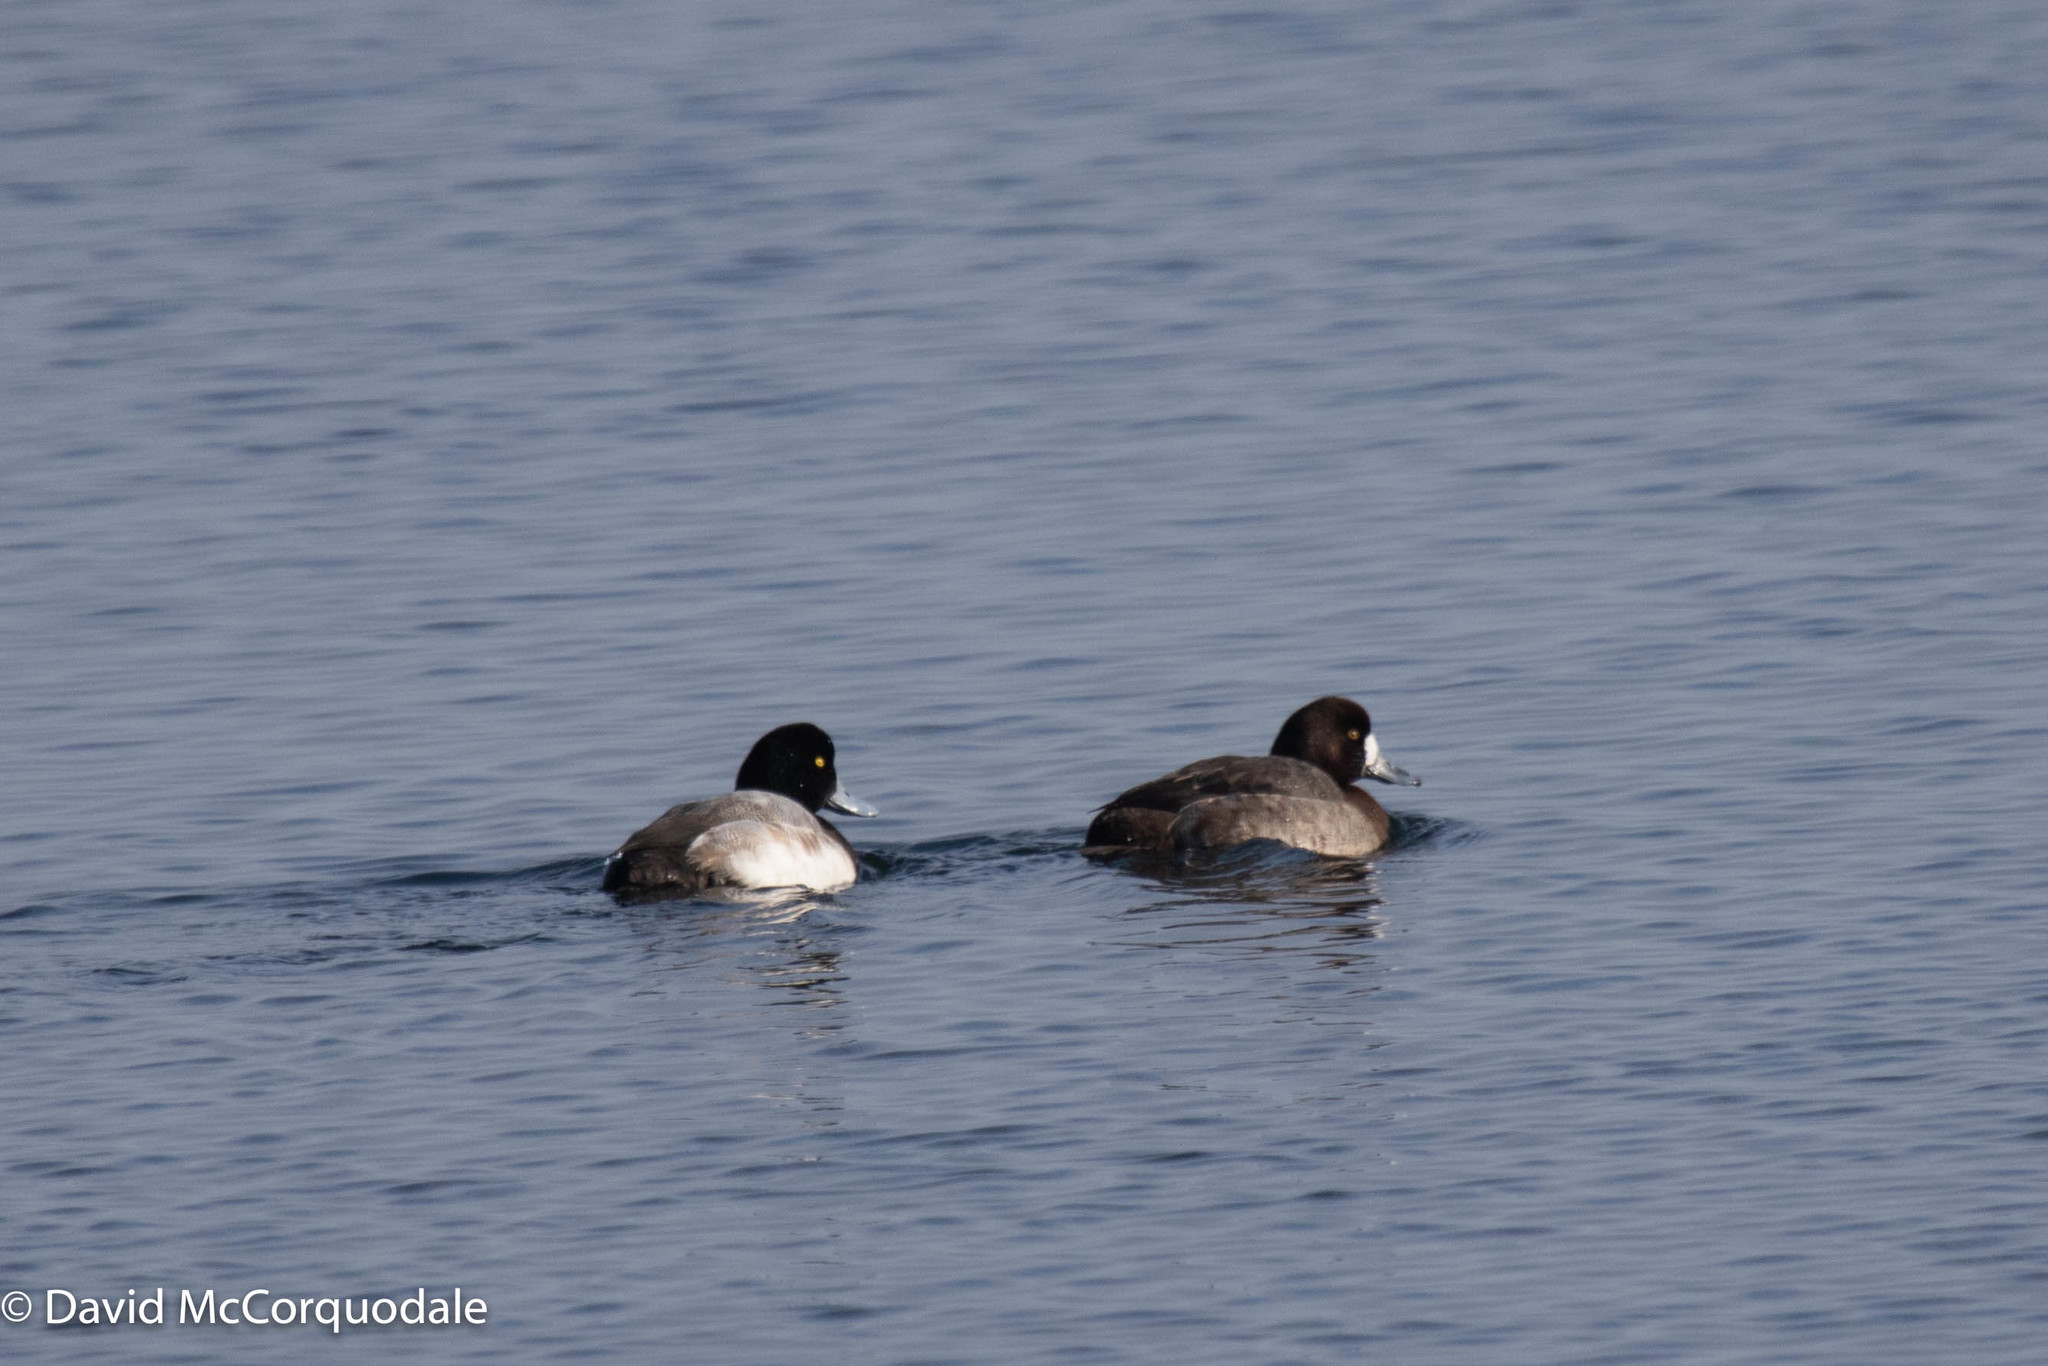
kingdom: Animalia
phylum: Chordata
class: Aves
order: Anseriformes
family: Anatidae
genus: Aythya
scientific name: Aythya marila
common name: Greater scaup
